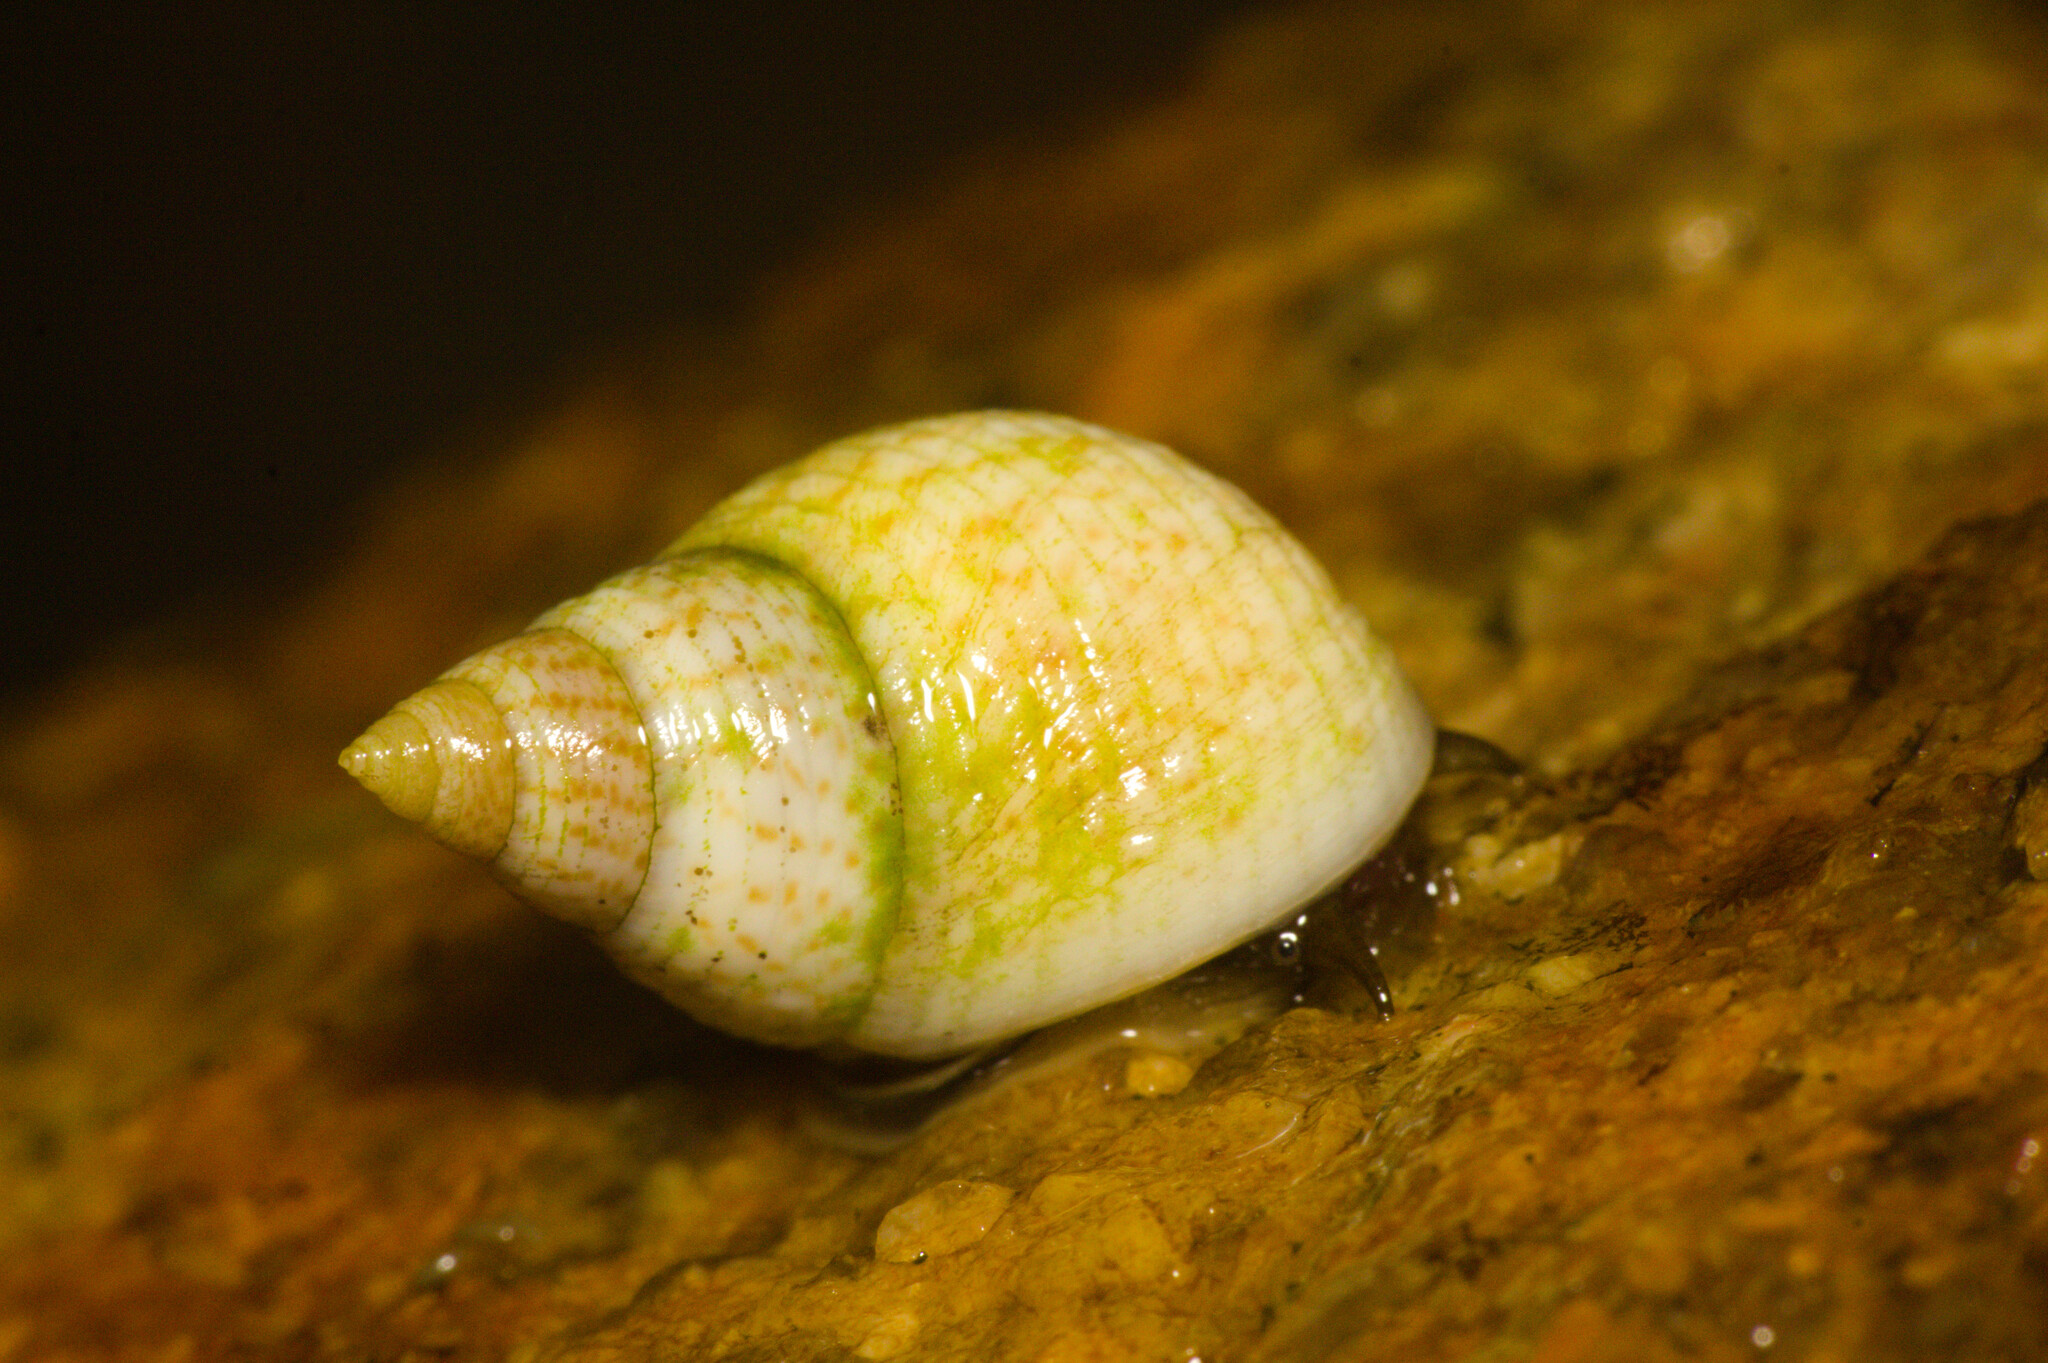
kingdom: Animalia
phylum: Mollusca
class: Gastropoda
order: Littorinimorpha
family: Littorinidae
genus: Littoraria
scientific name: Littoraria flava
